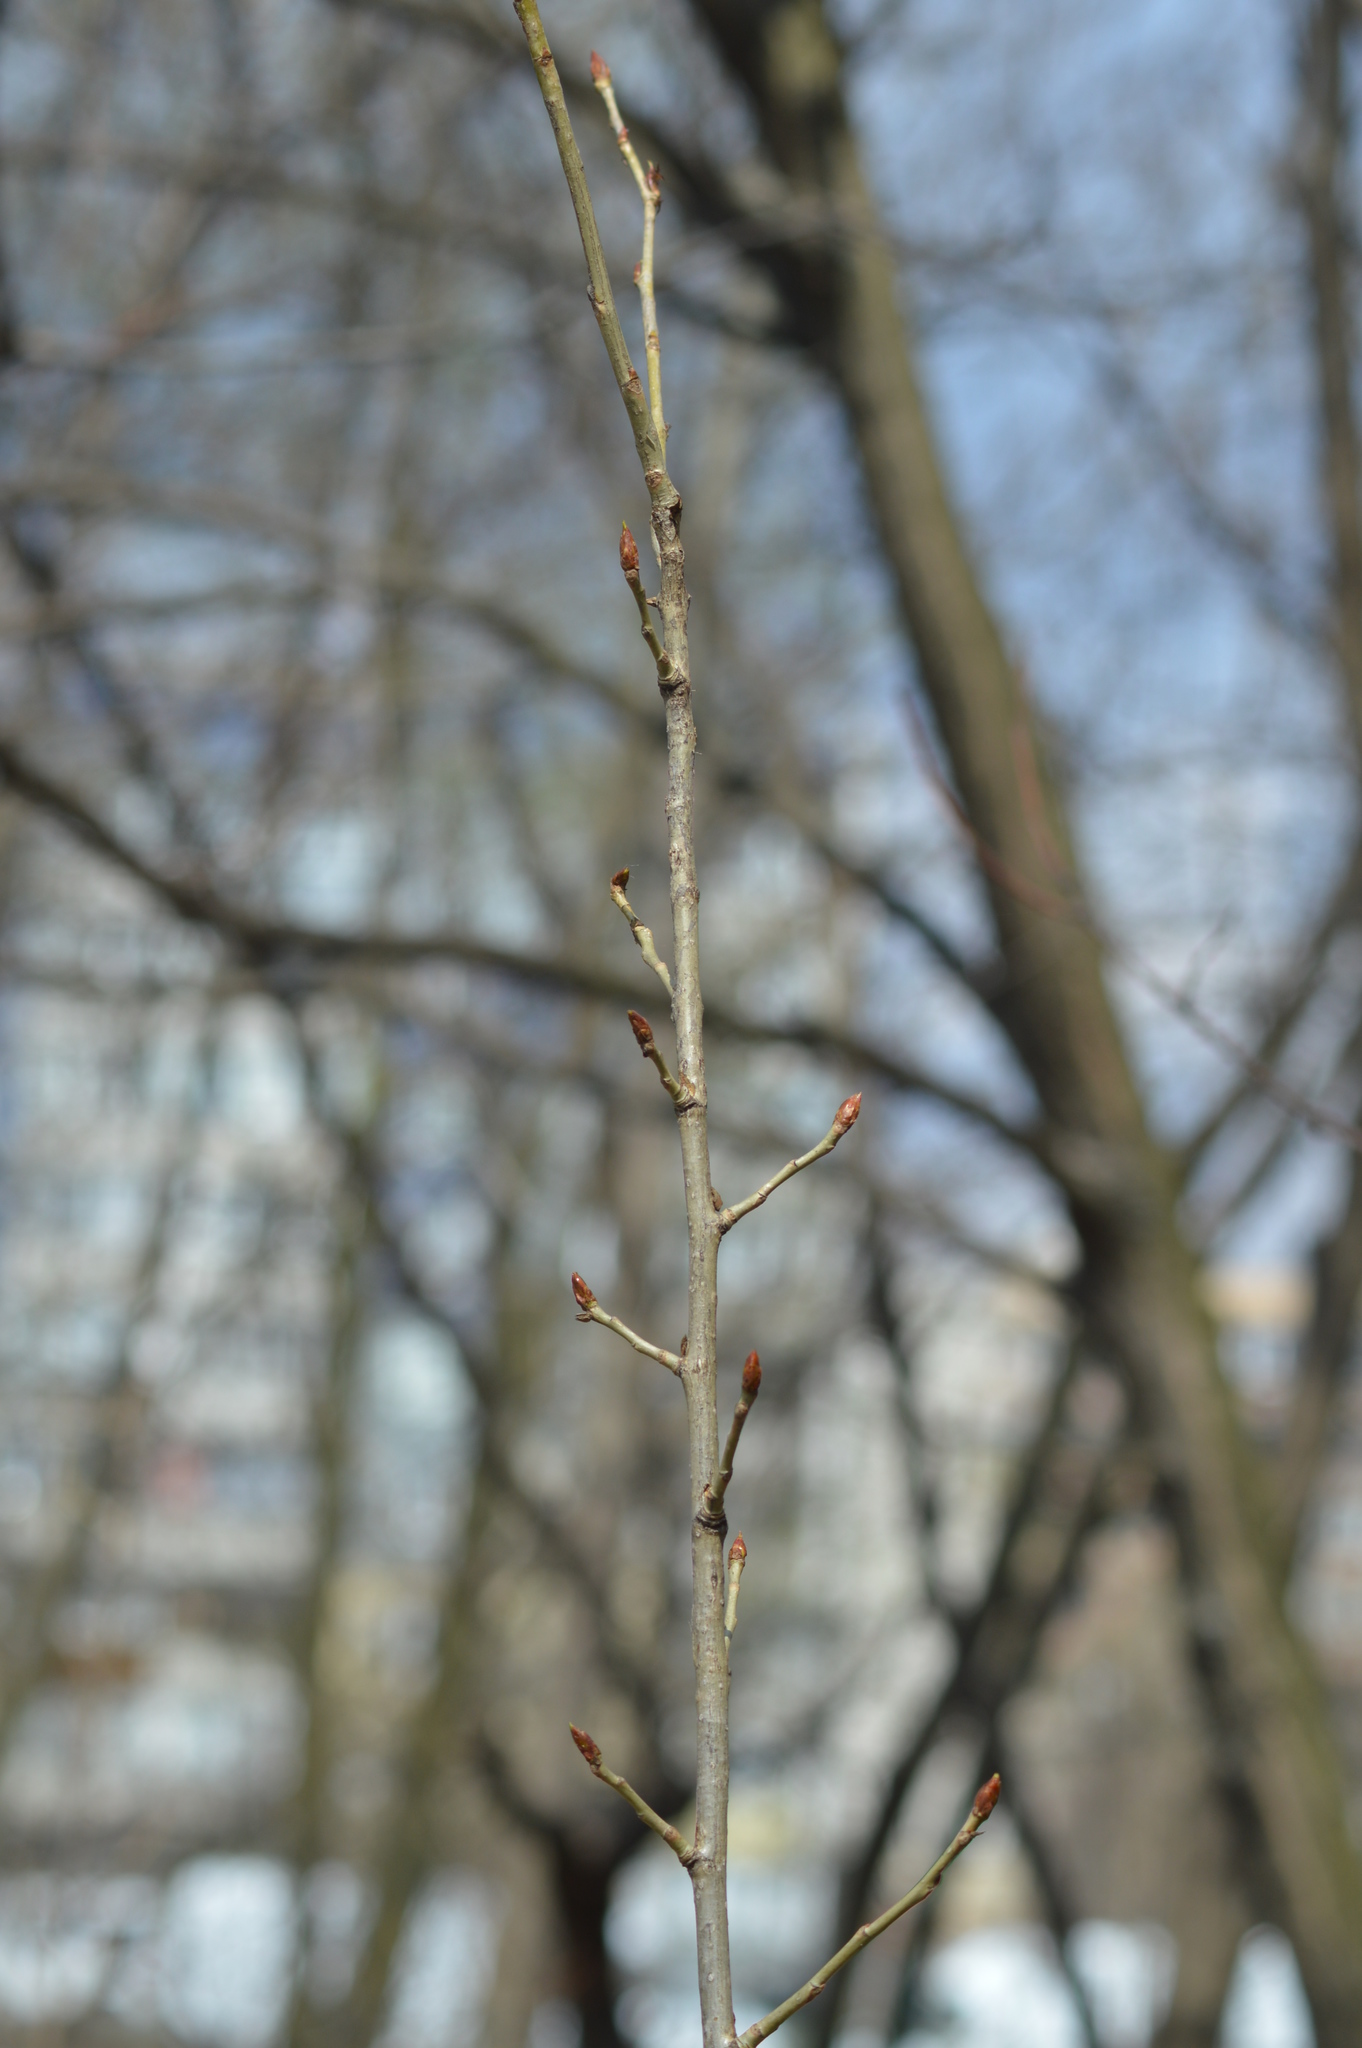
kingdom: Plantae
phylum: Tracheophyta
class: Magnoliopsida
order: Malpighiales
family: Salicaceae
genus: Populus
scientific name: Populus nigra
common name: Black poplar
